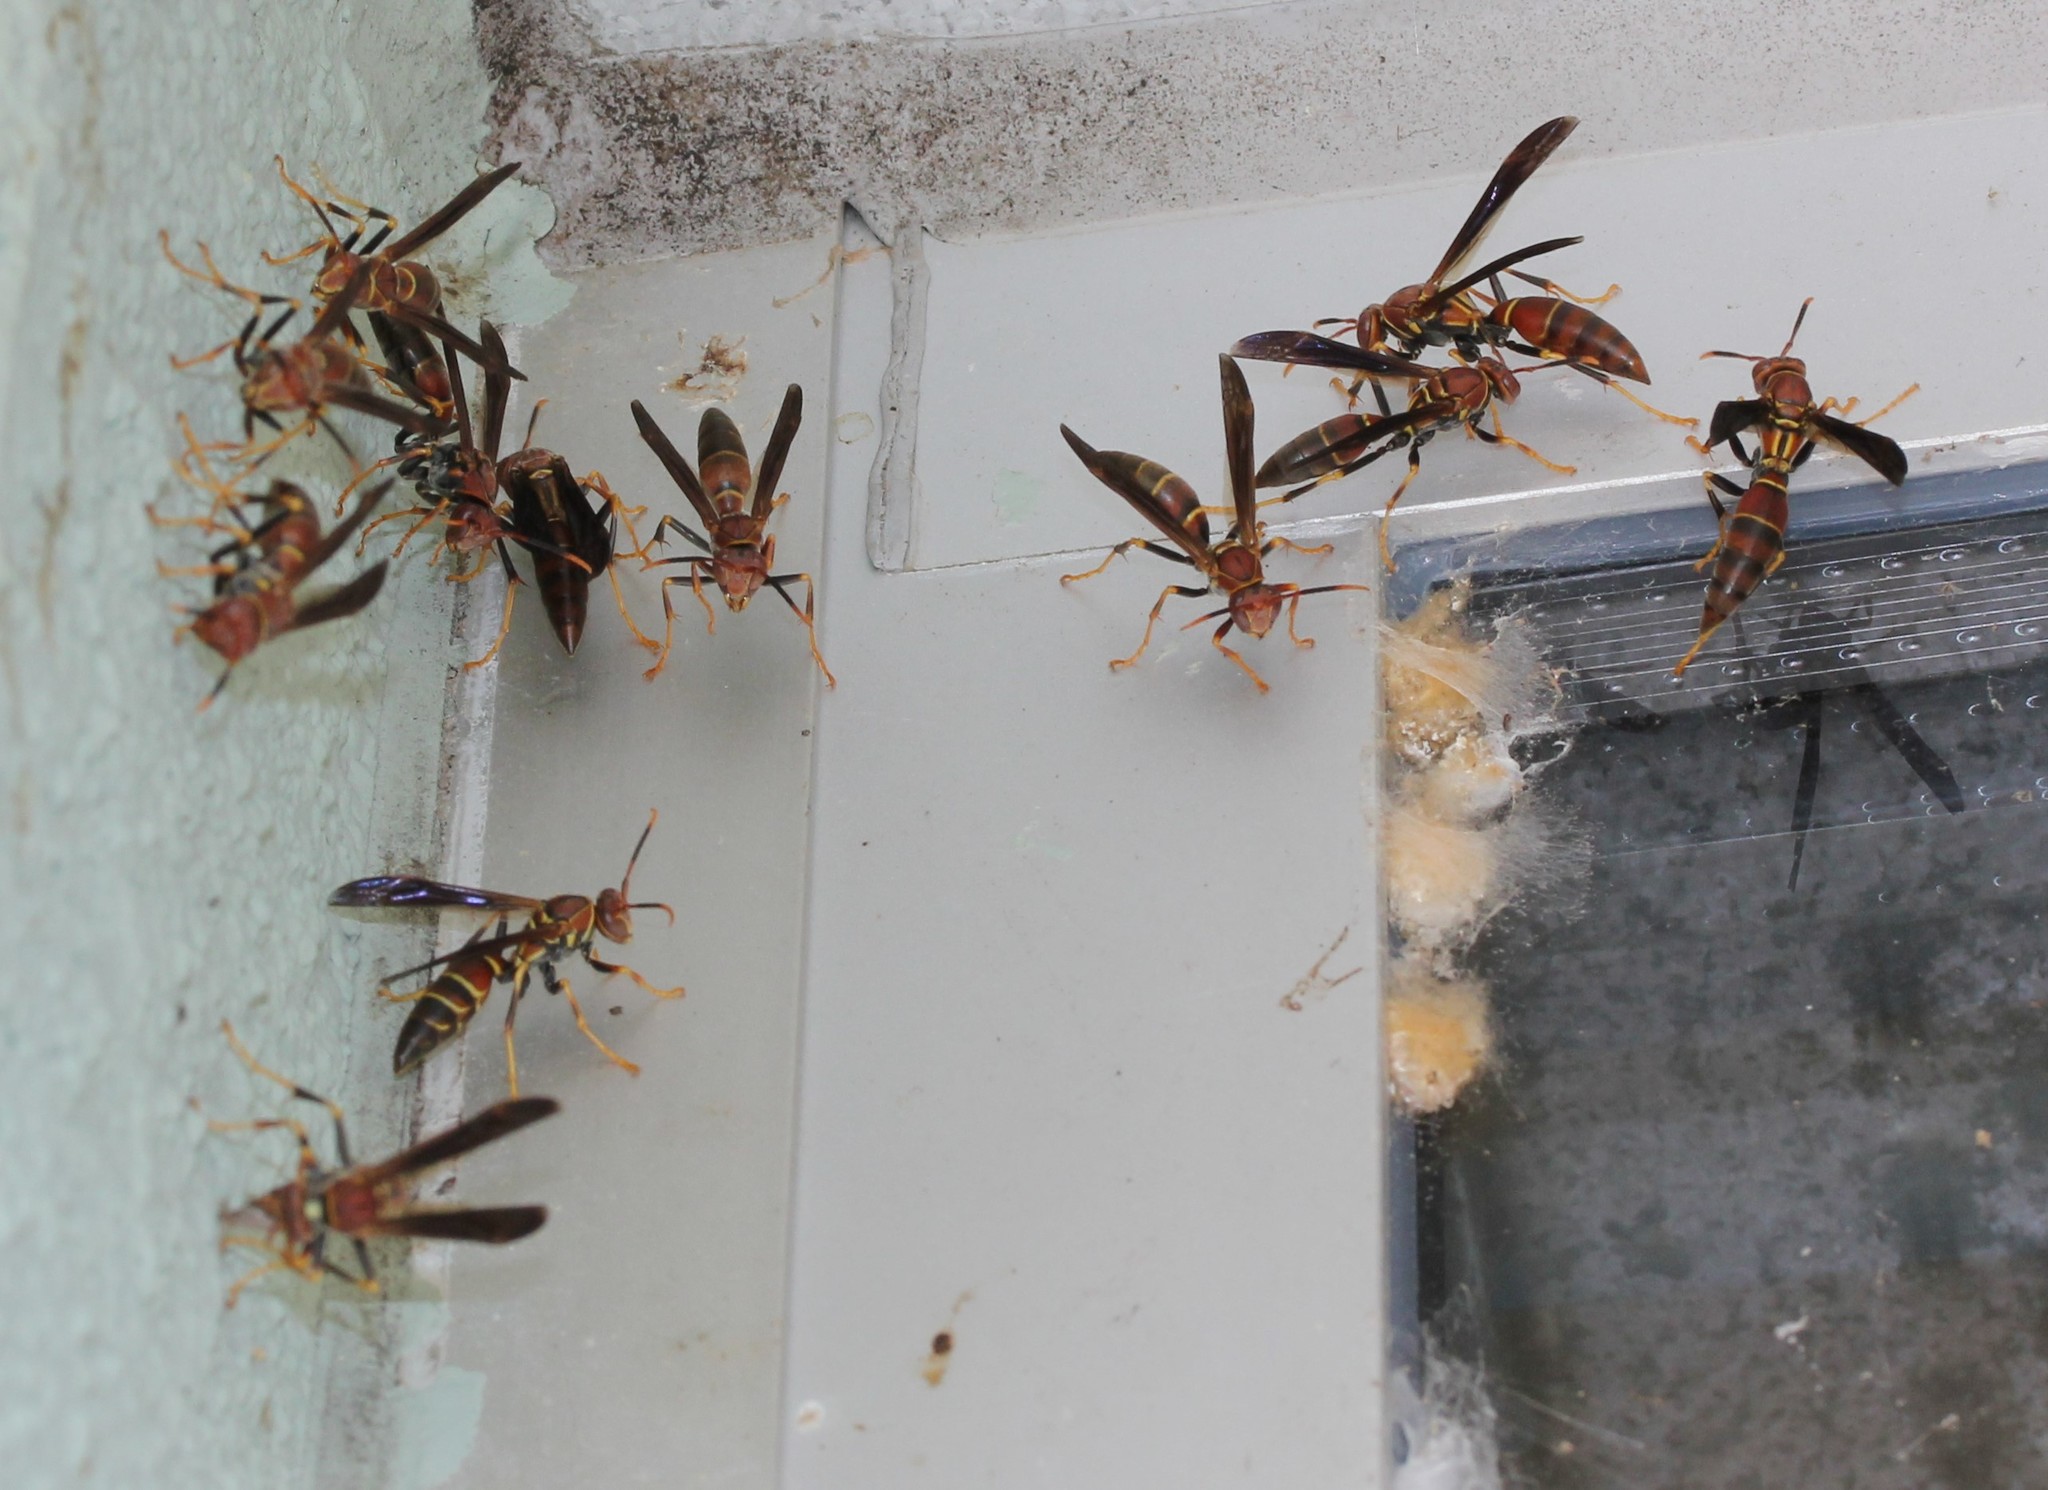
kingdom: Animalia
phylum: Arthropoda
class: Insecta
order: Hymenoptera
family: Eumenidae
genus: Polistes
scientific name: Polistes bahamensis
